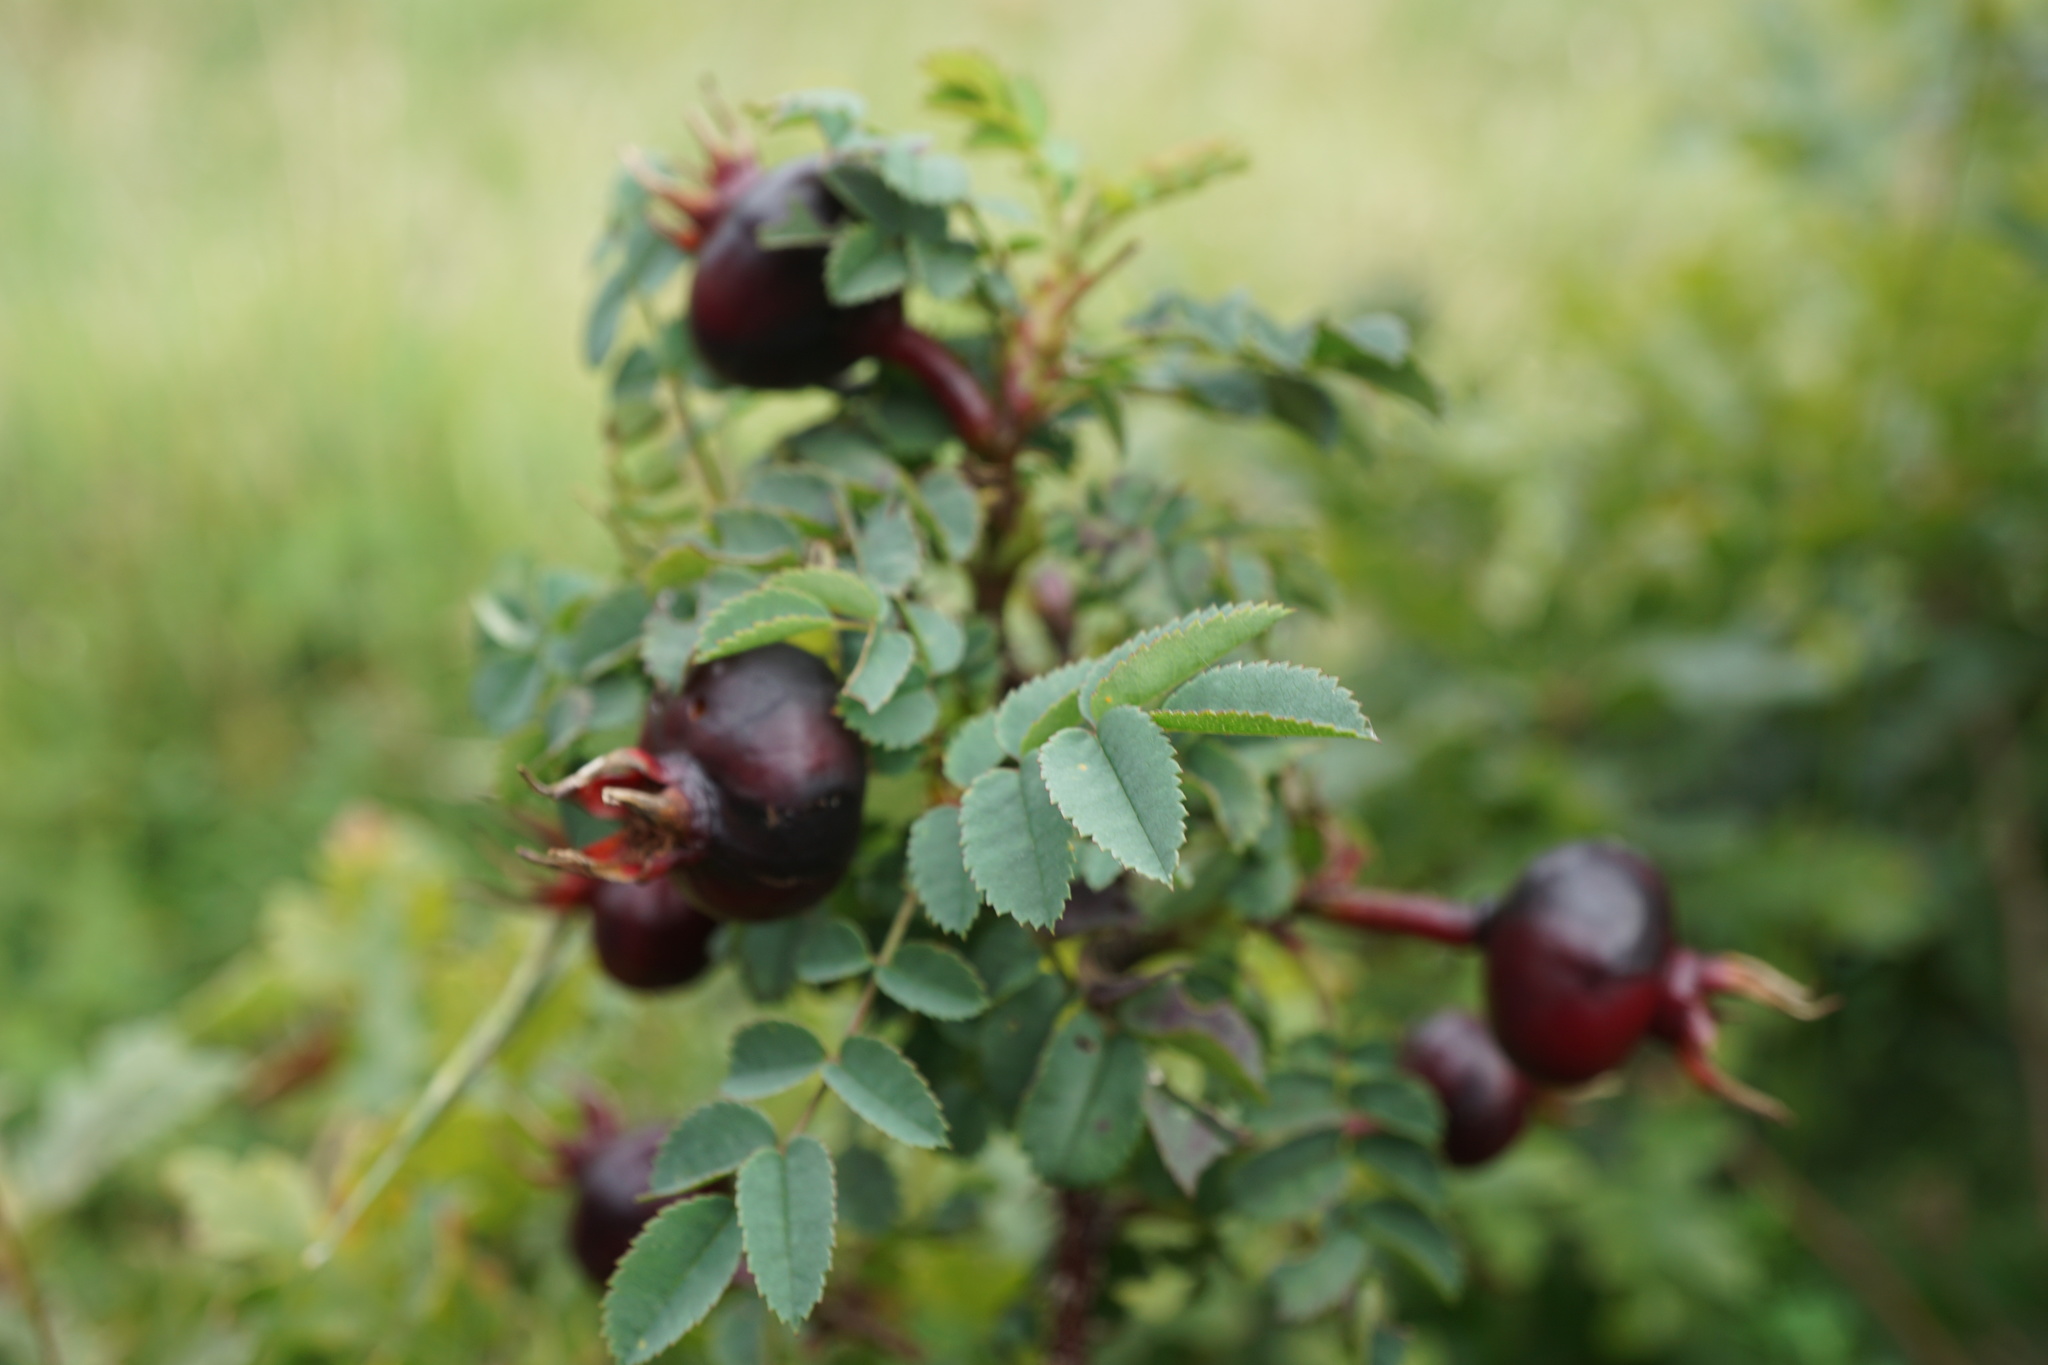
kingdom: Plantae
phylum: Tracheophyta
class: Magnoliopsida
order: Rosales
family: Rosaceae
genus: Rosa
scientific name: Rosa spinosissima
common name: Burnet rose
